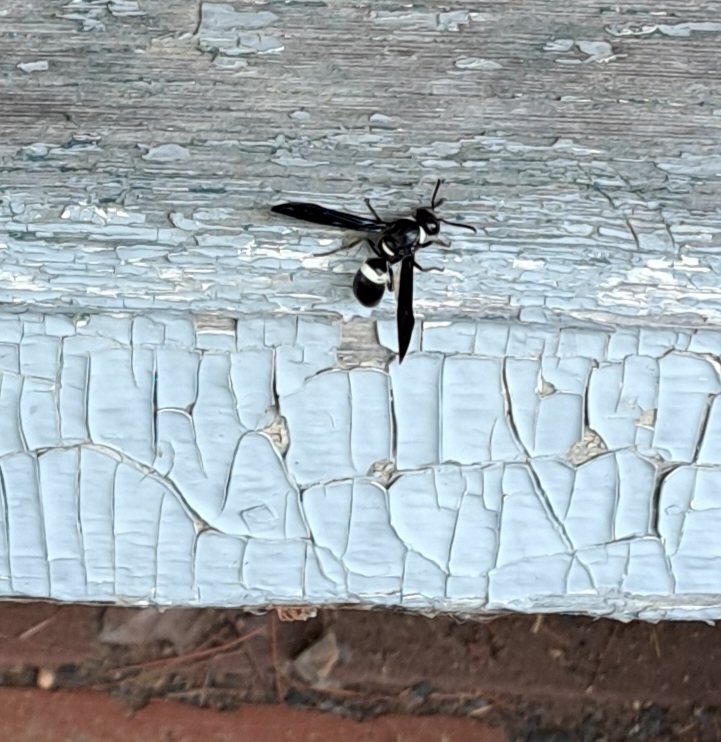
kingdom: Animalia
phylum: Arthropoda
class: Insecta
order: Hymenoptera
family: Eumenidae
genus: Monobia
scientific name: Monobia quadridens
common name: Four-toothed mason wasp
